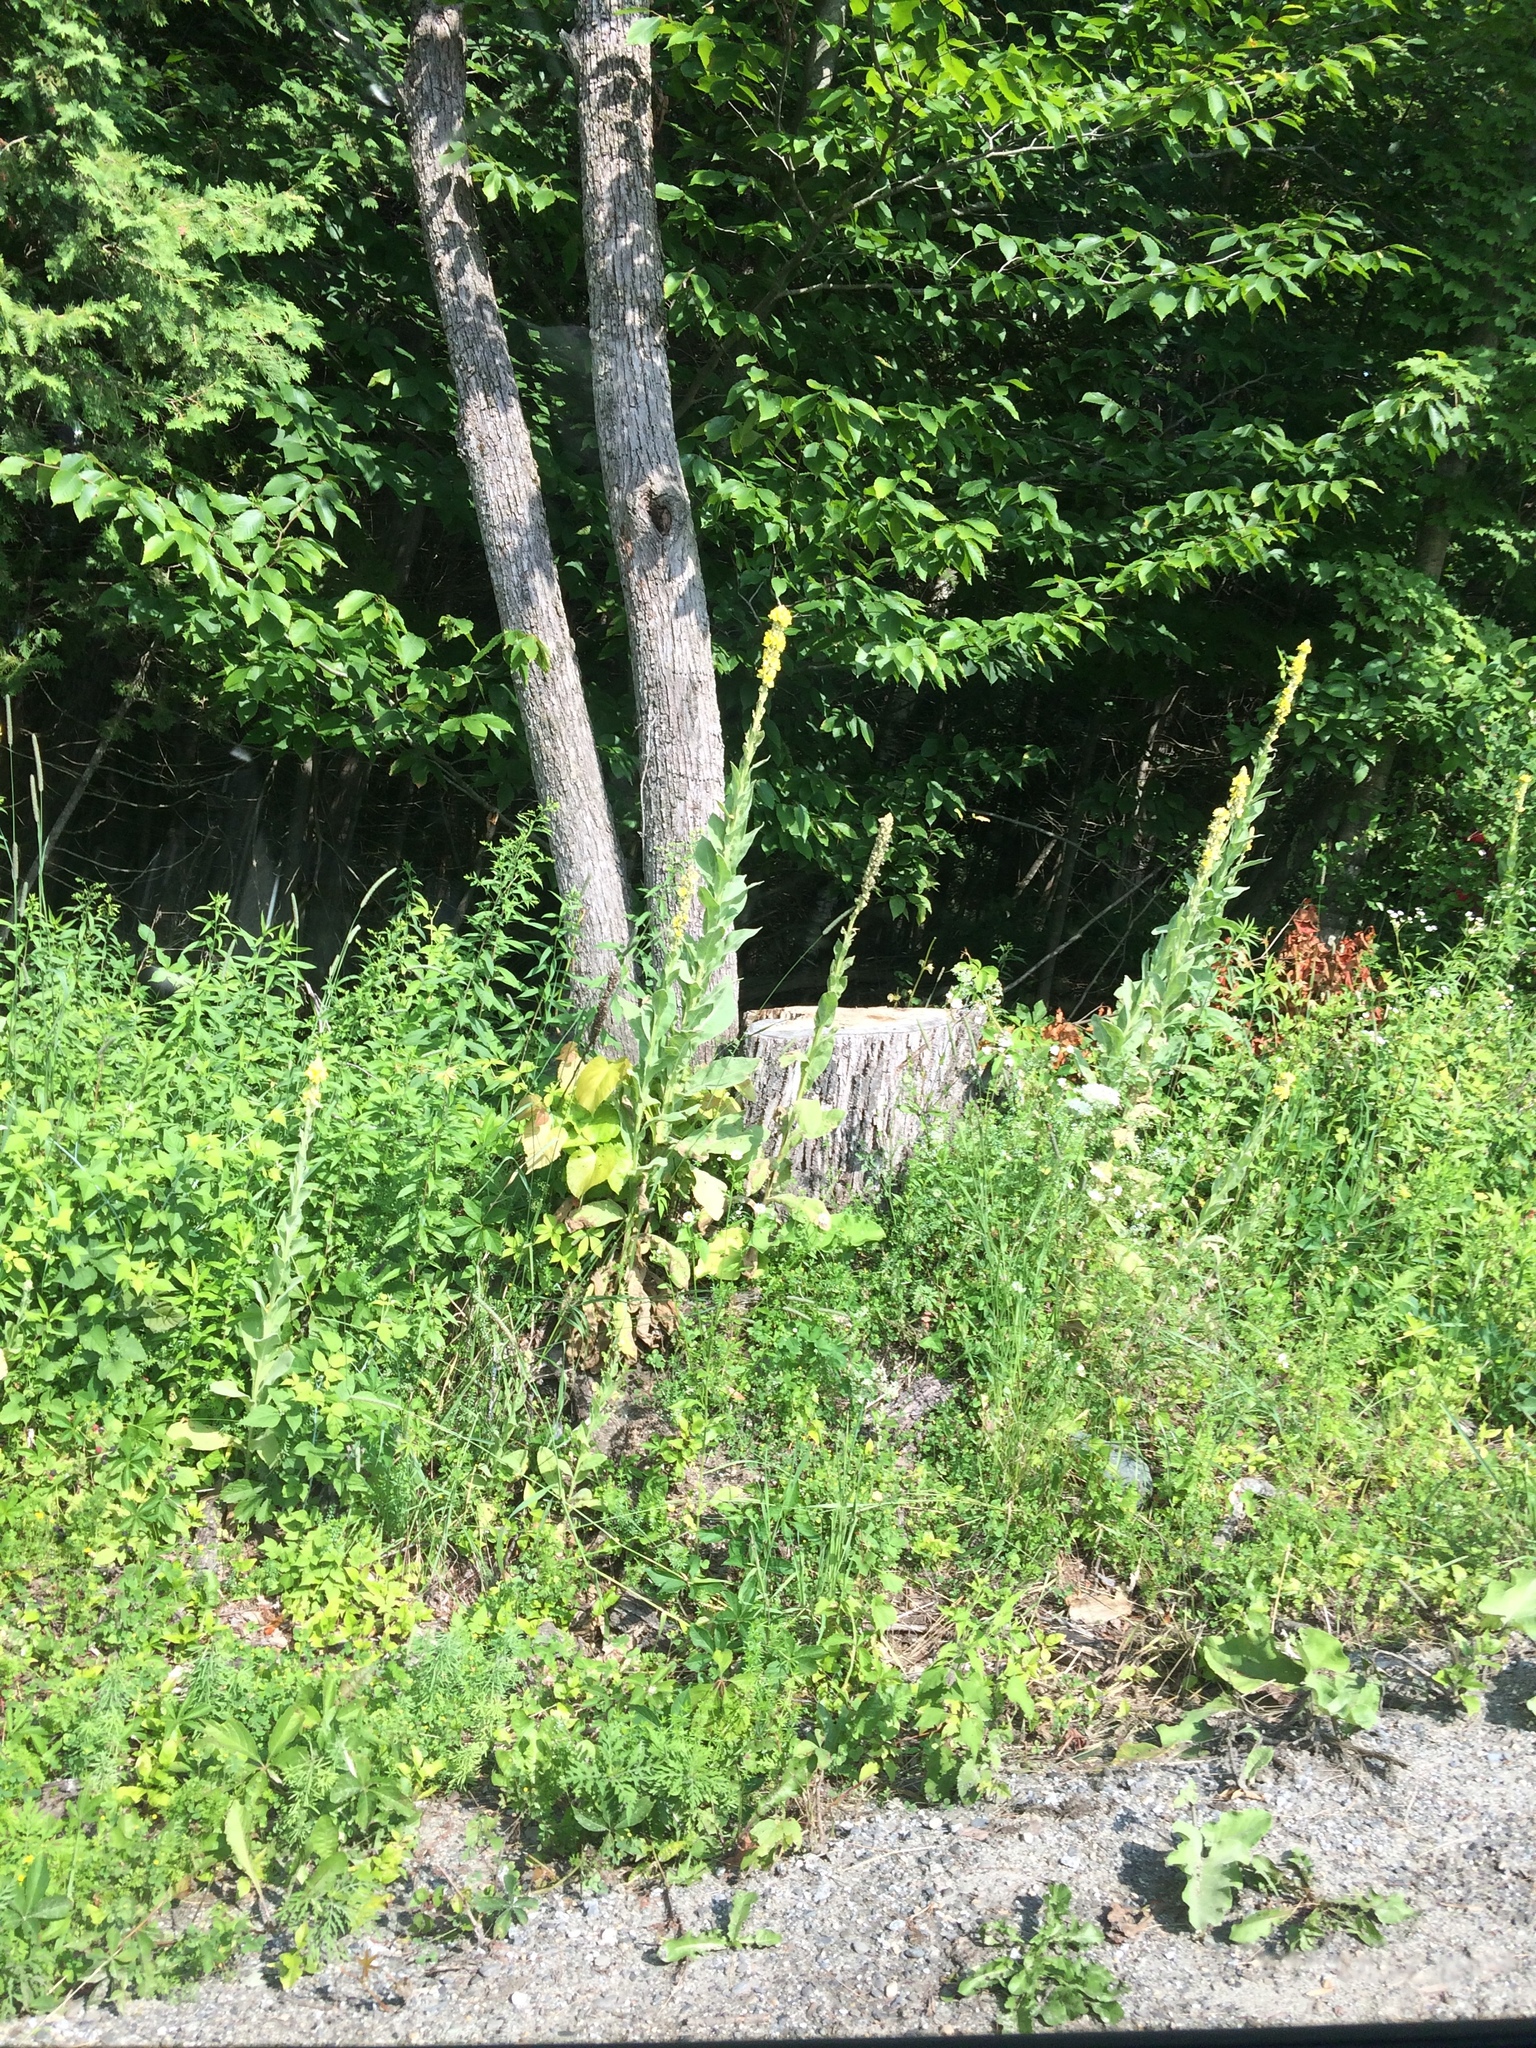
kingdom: Plantae
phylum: Tracheophyta
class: Magnoliopsida
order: Lamiales
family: Scrophulariaceae
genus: Verbascum
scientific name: Verbascum thapsus
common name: Common mullein
